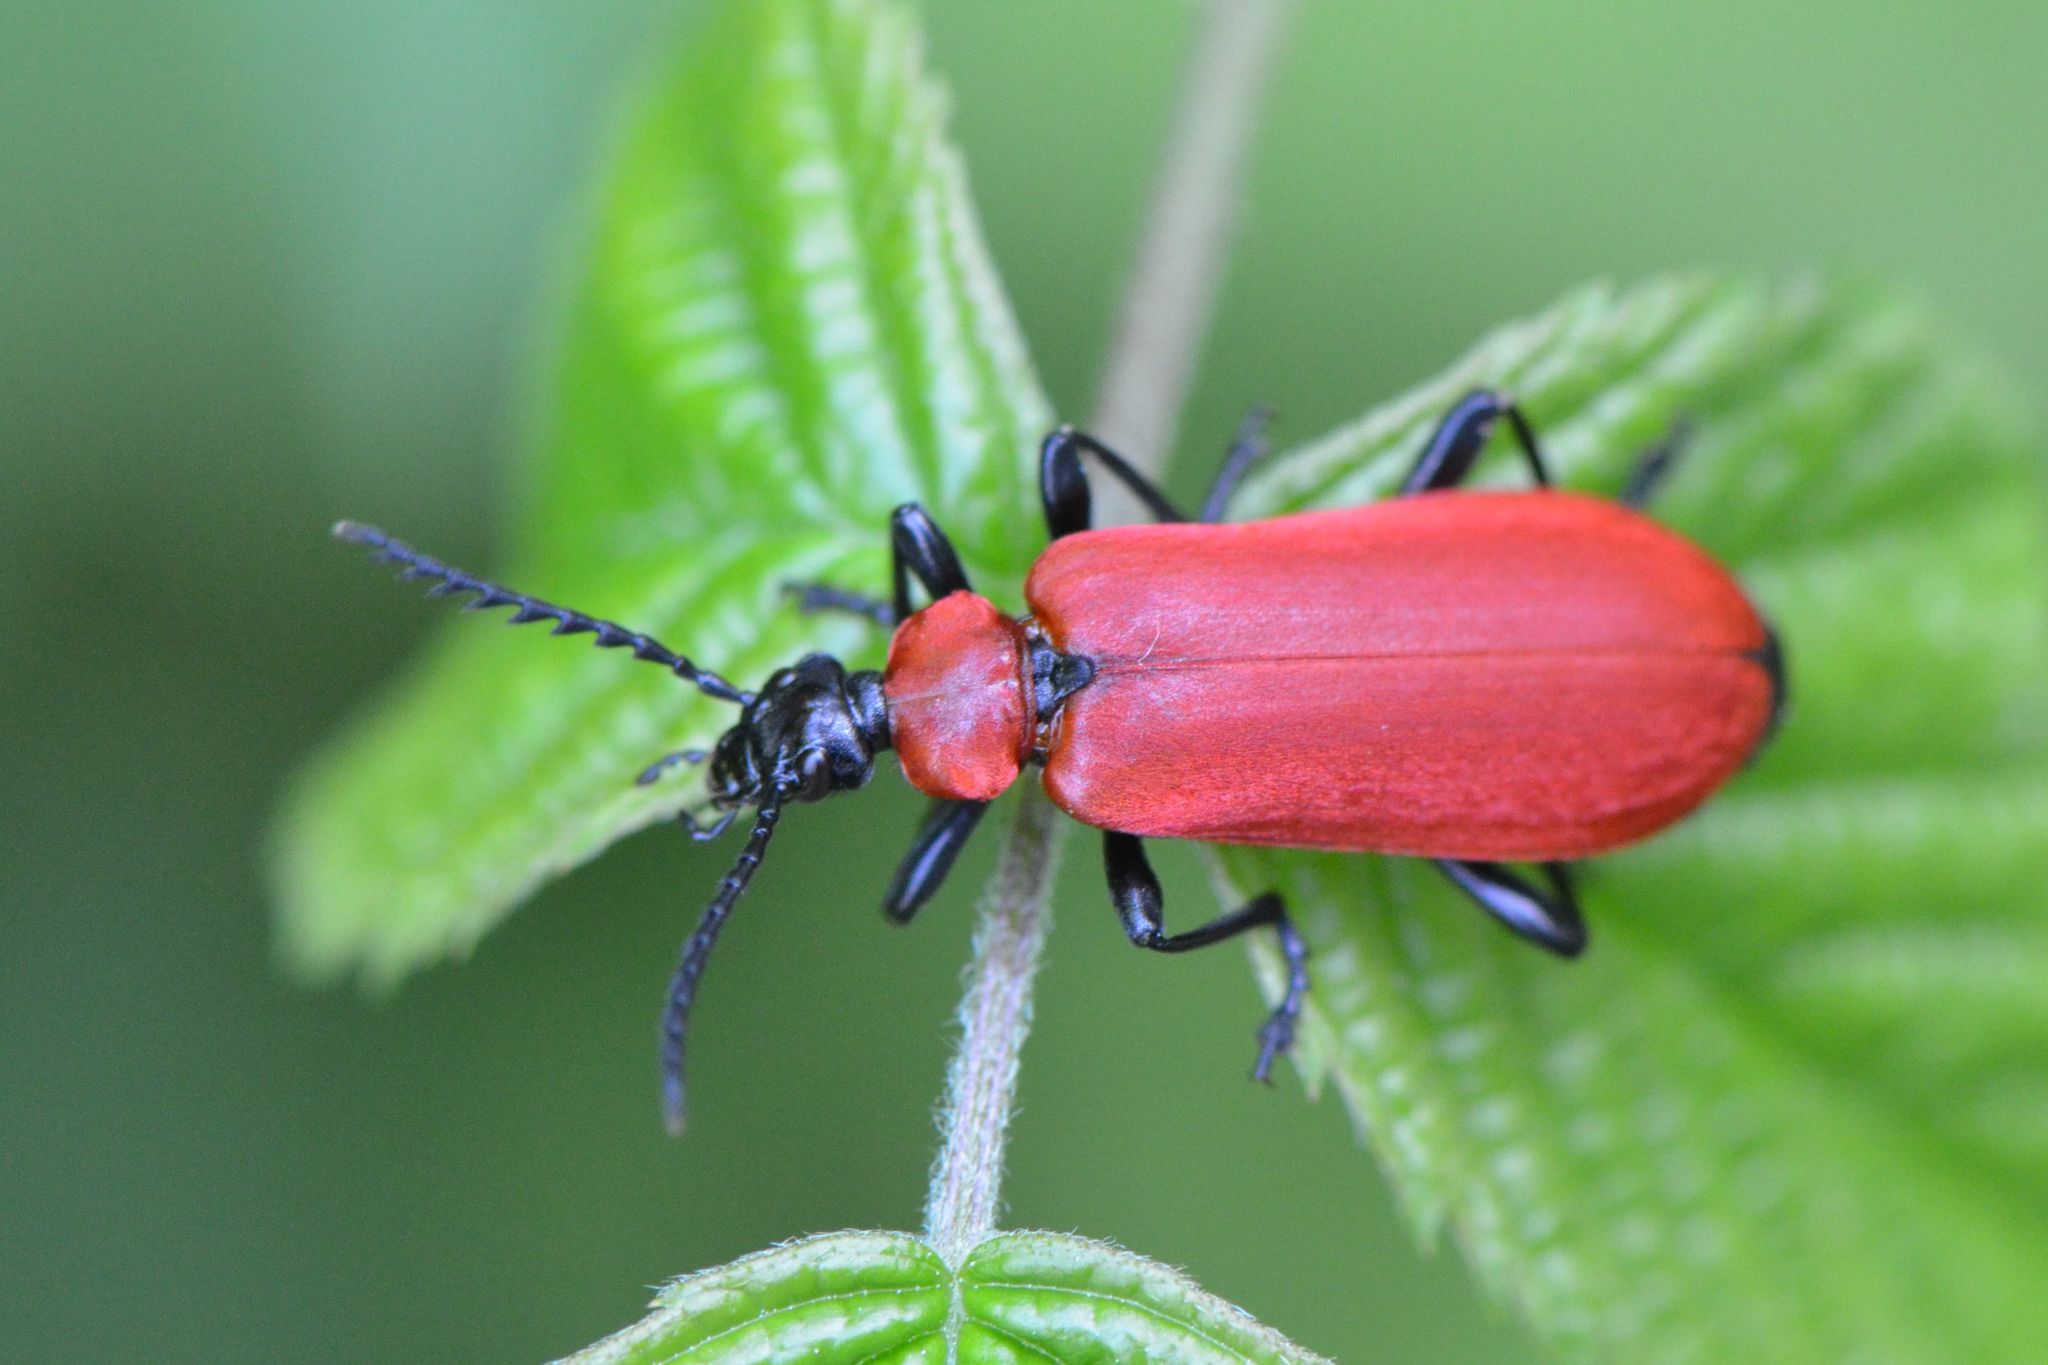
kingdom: Animalia
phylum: Arthropoda
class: Insecta
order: Coleoptera
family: Pyrochroidae
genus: Pyrochroa
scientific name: Pyrochroa coccinea
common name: Black-headed cardinal beetle
